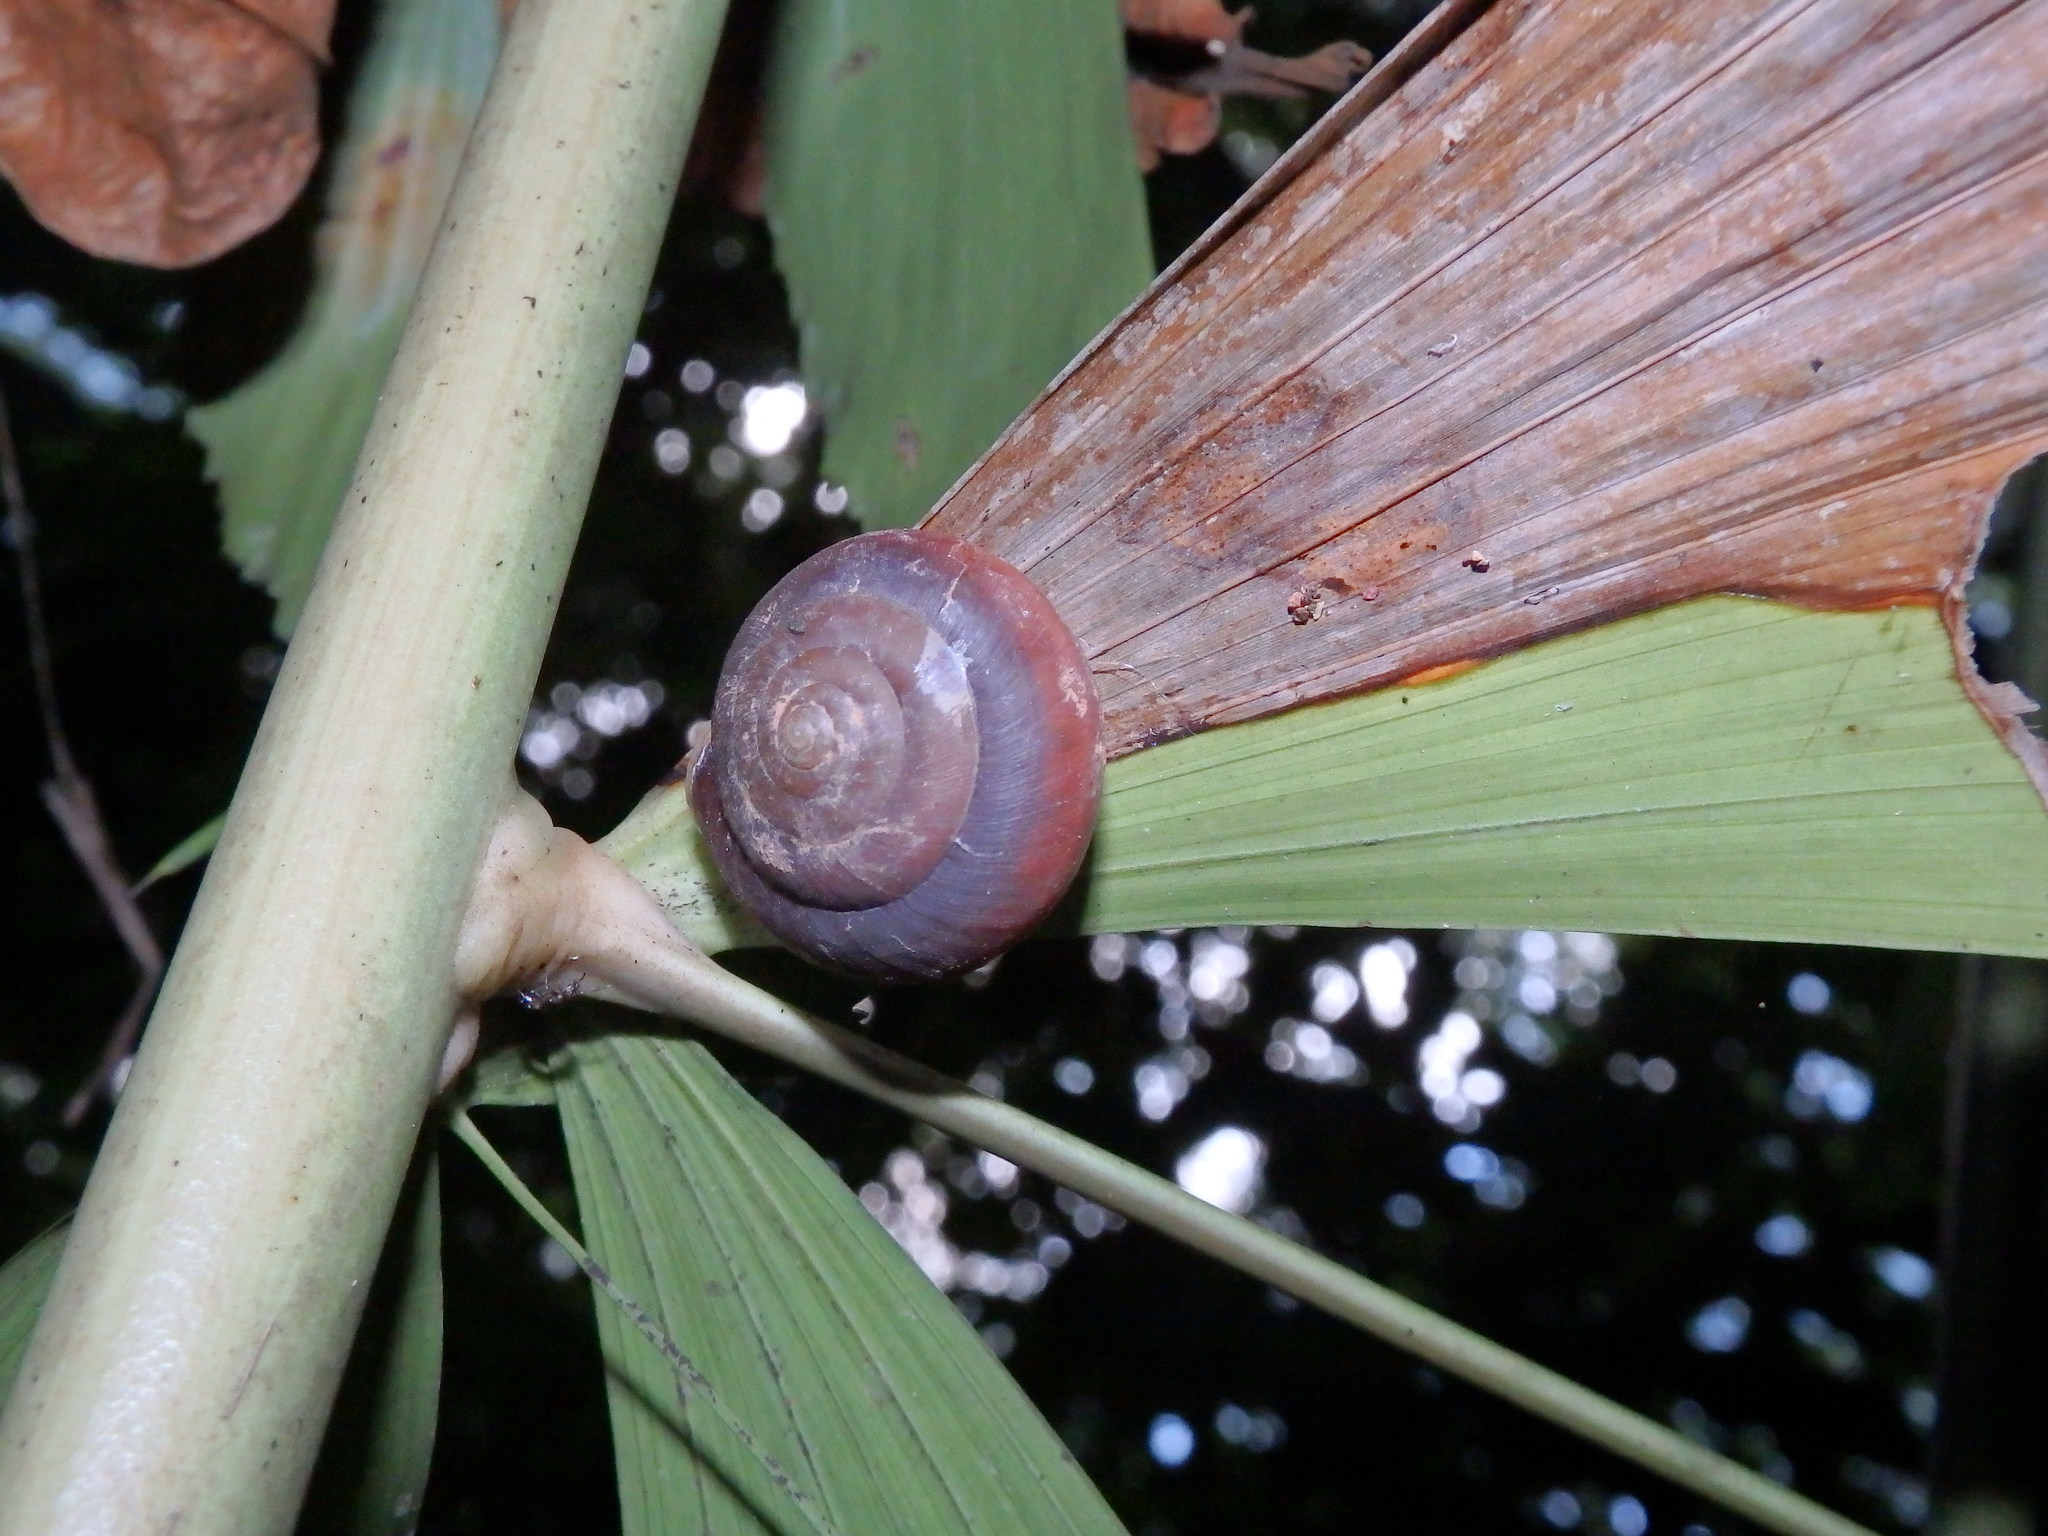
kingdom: Animalia
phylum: Mollusca
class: Gastropoda
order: Stylommatophora
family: Dyakiidae
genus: Quantula
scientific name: Quantula striata
